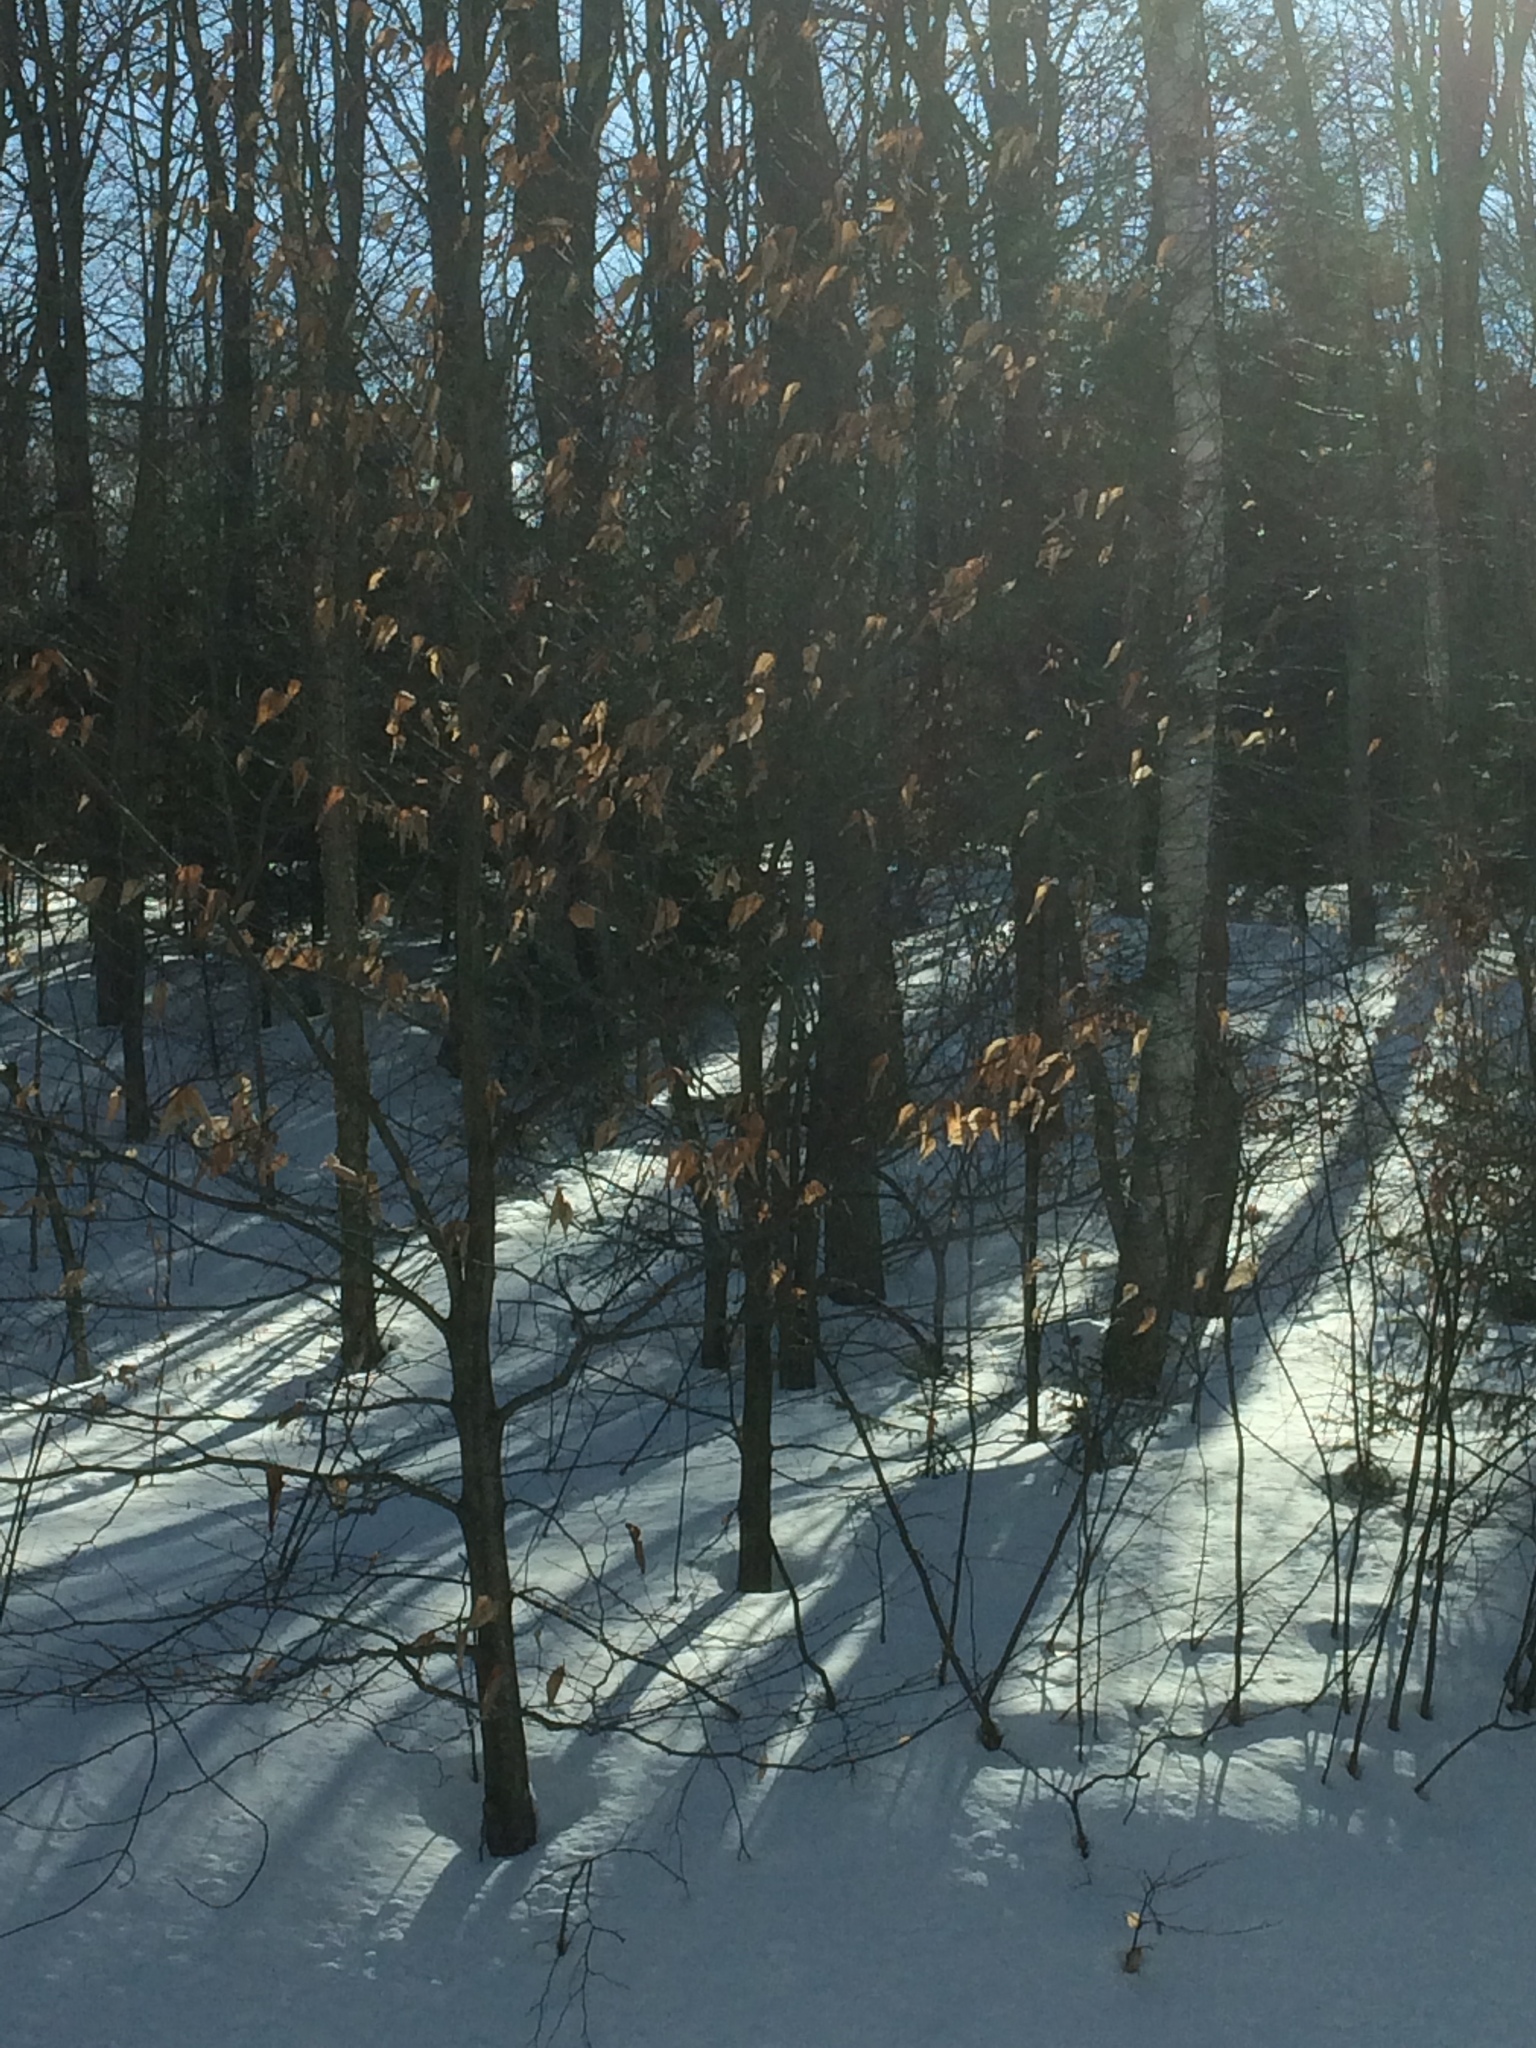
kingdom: Plantae
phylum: Tracheophyta
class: Magnoliopsida
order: Fagales
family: Fagaceae
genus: Fagus
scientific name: Fagus grandifolia
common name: American beech
